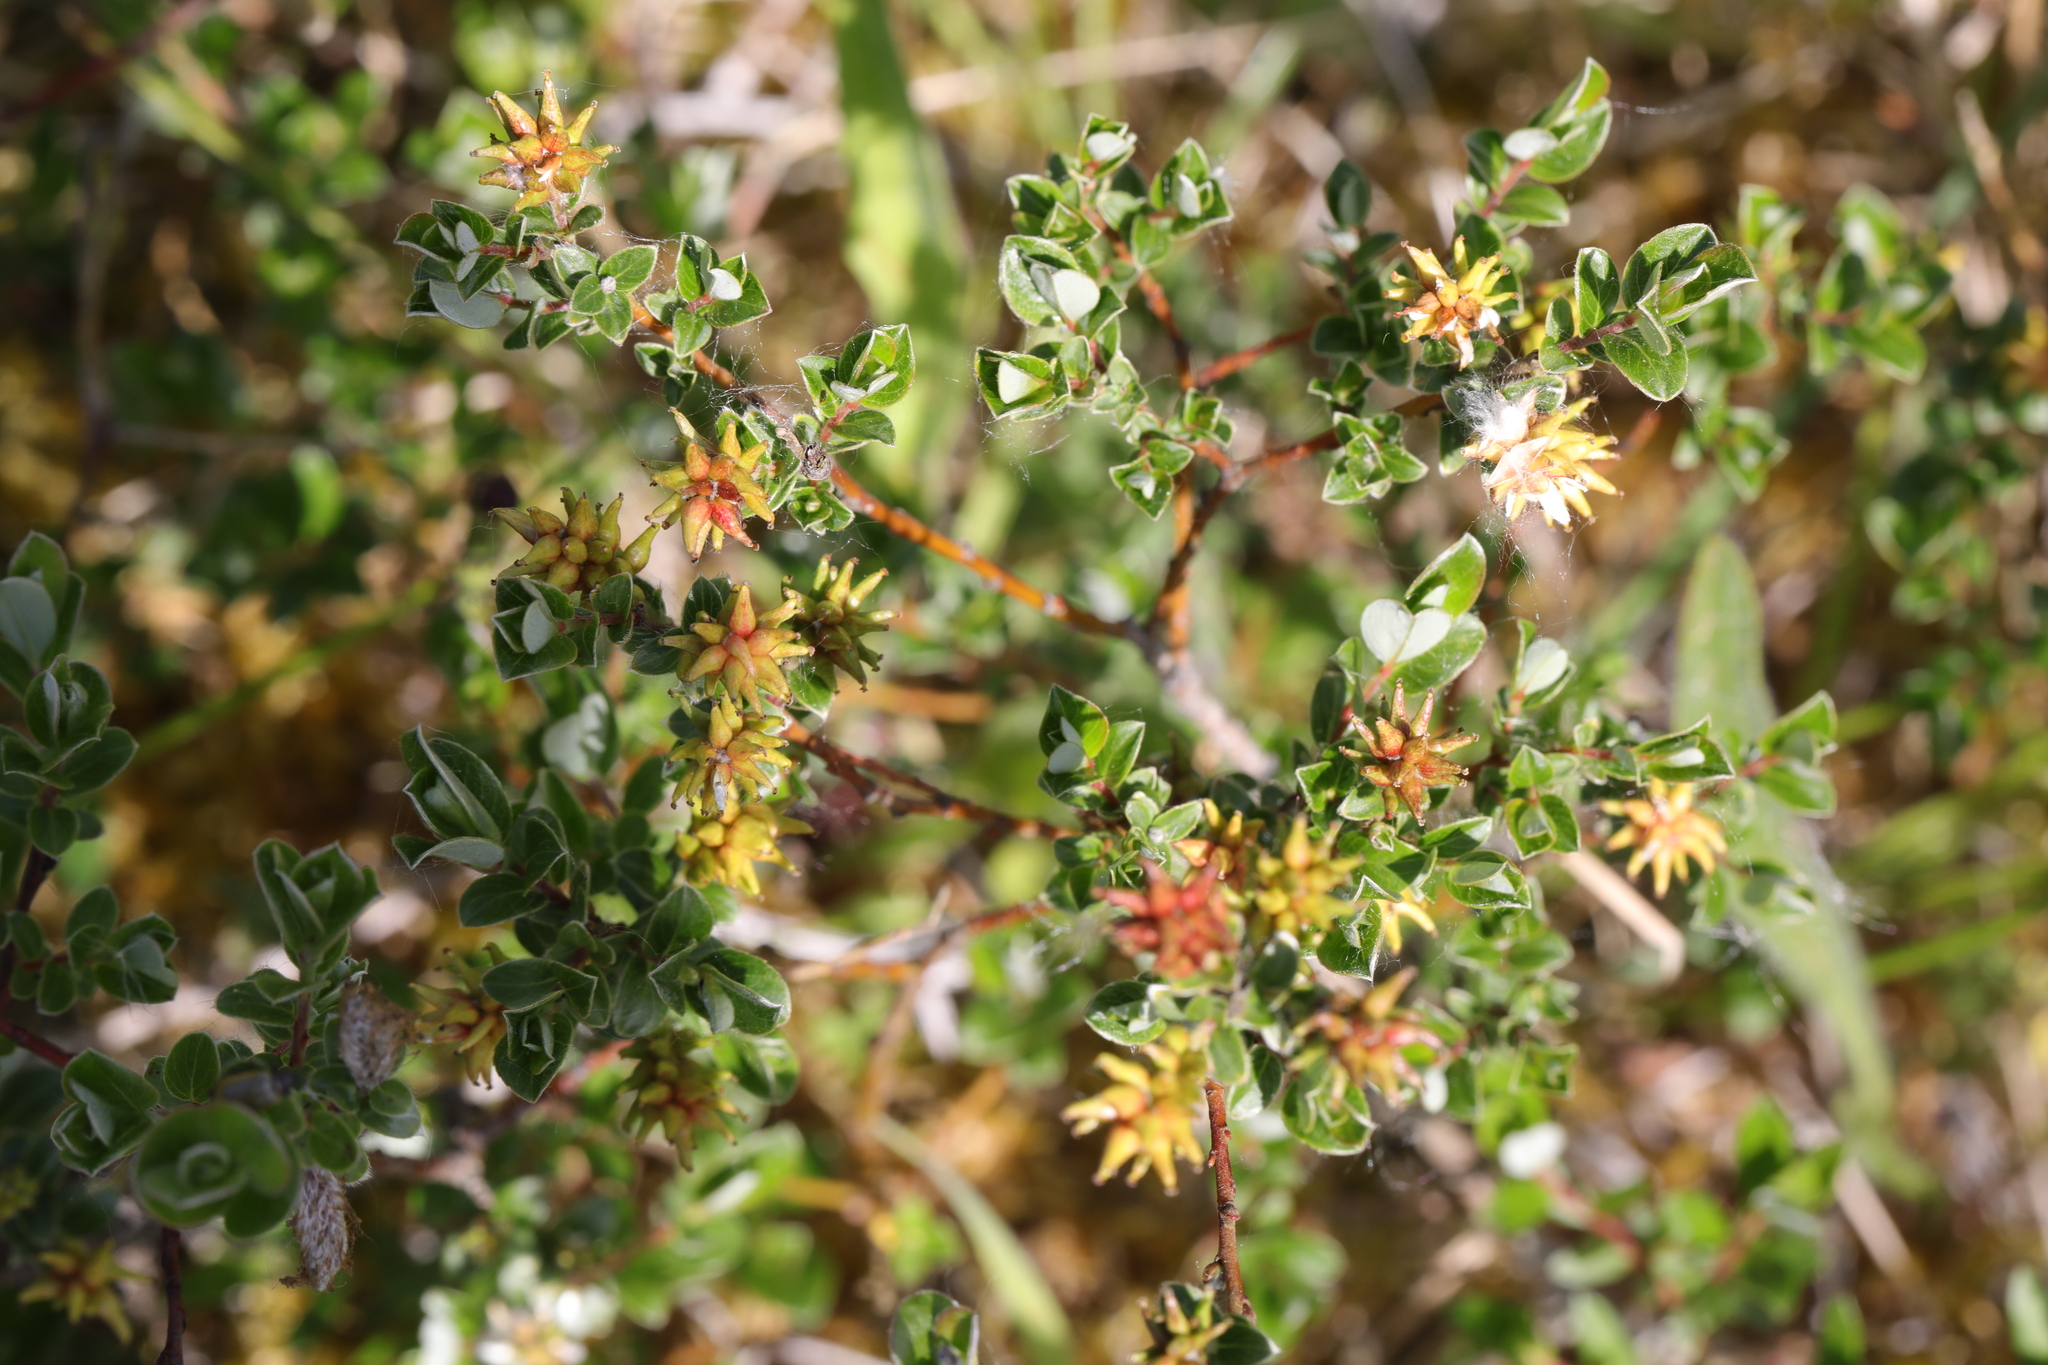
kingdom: Plantae
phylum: Tracheophyta
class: Magnoliopsida
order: Malpighiales
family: Salicaceae
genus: Salix
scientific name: Salix repens
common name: Creeping willow
